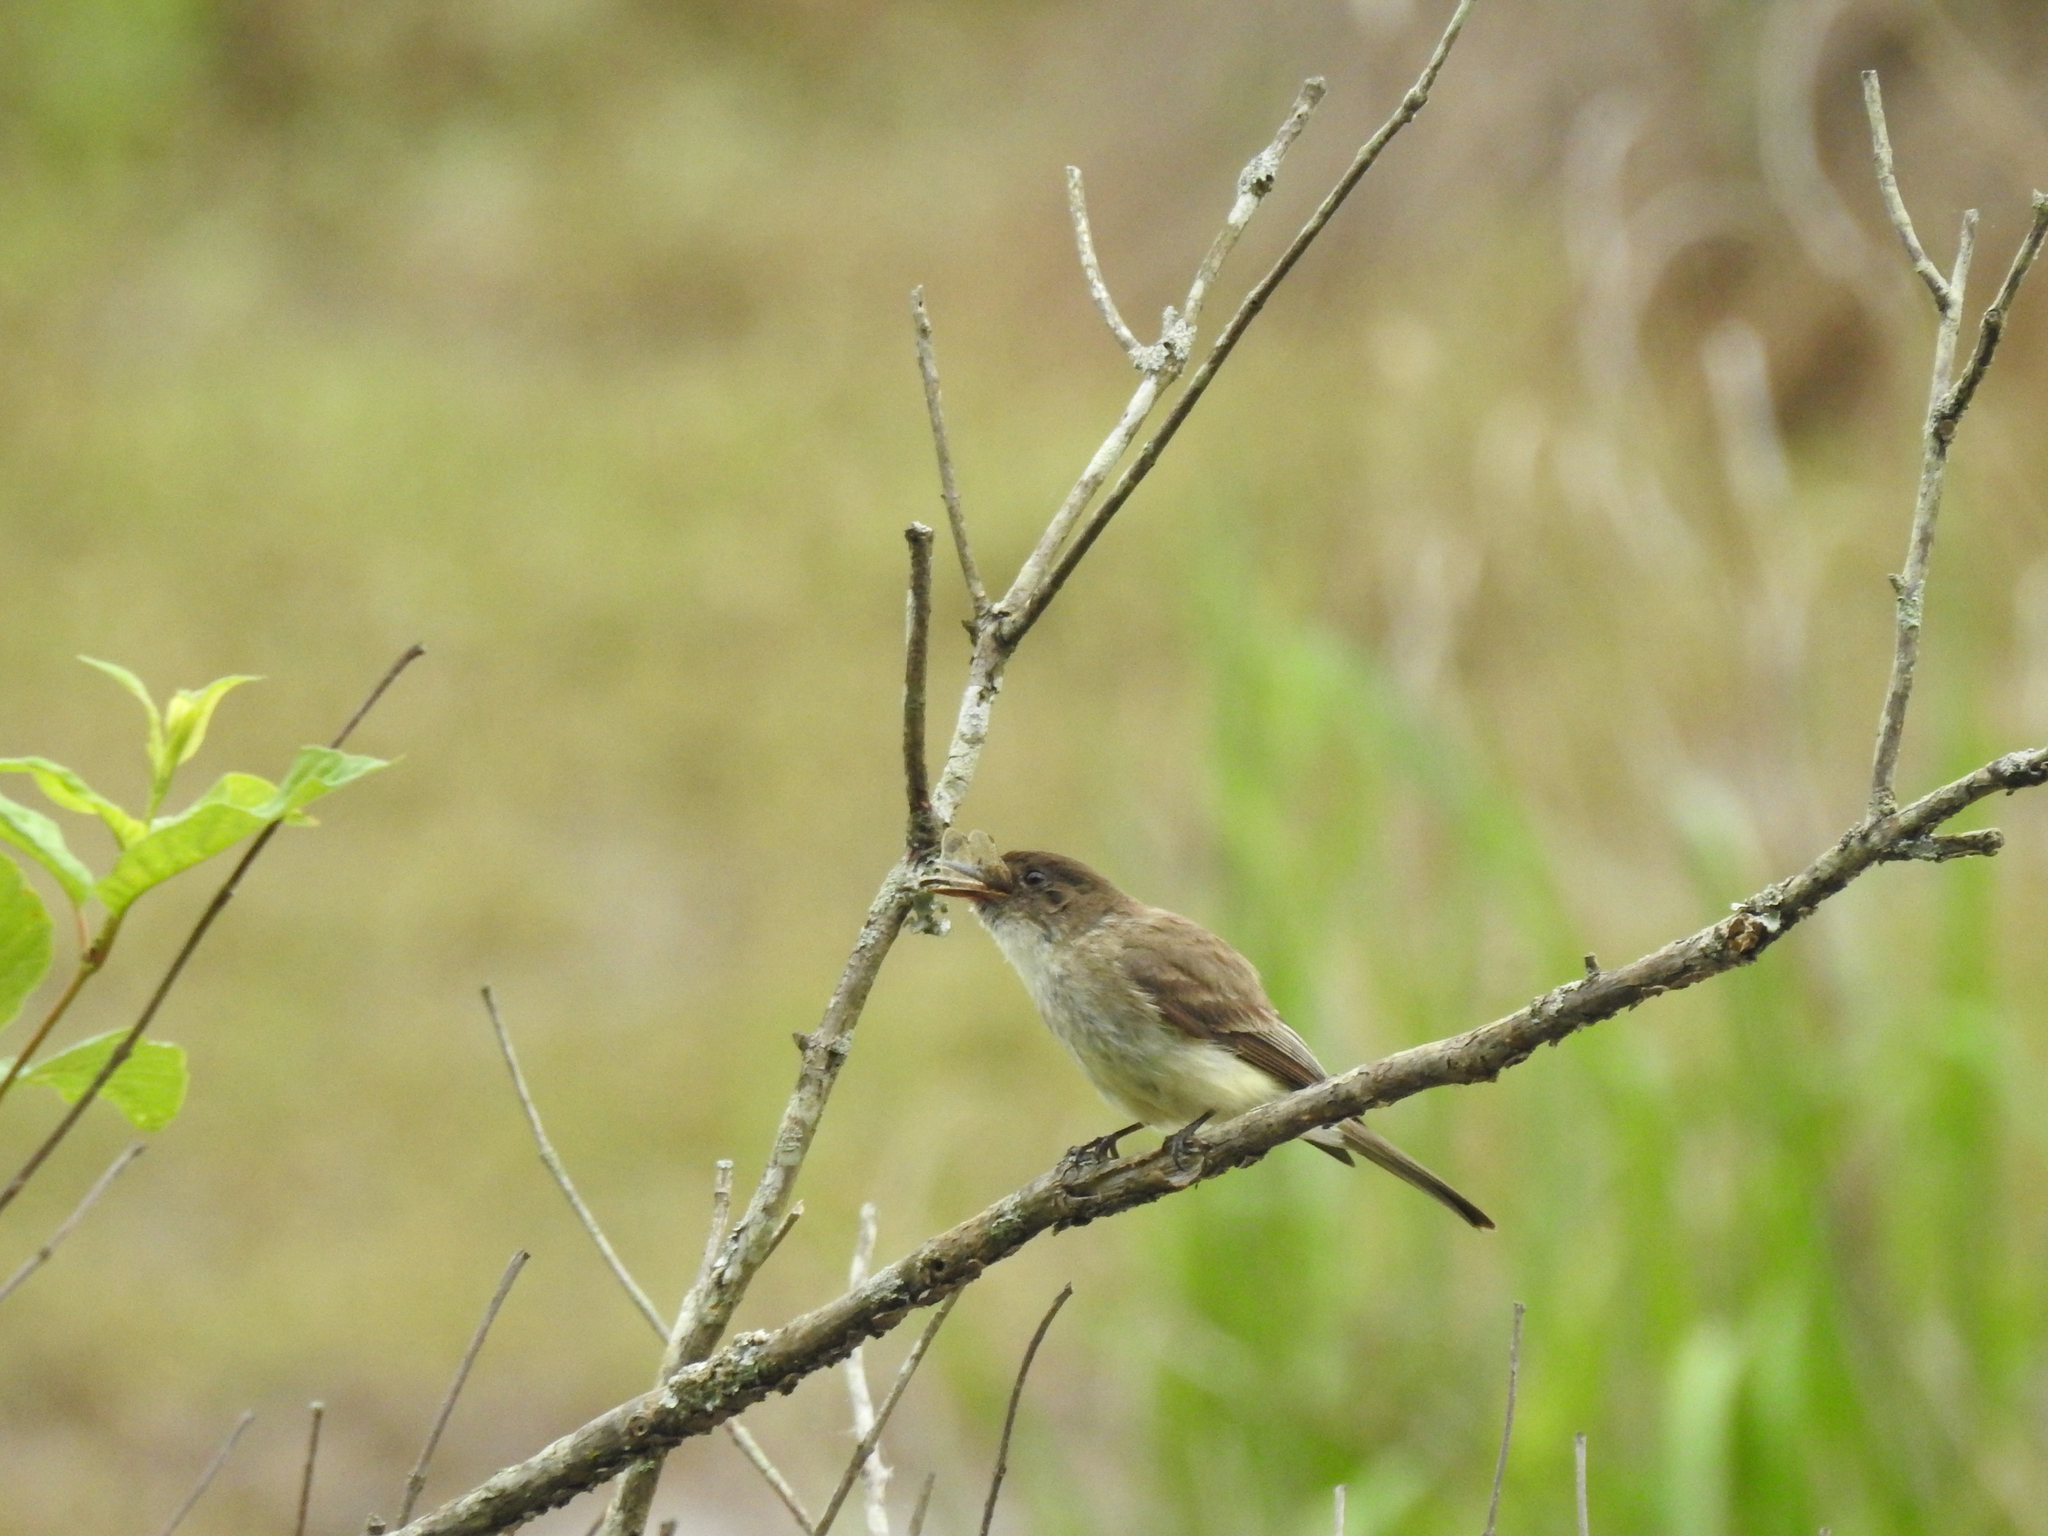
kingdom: Animalia
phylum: Chordata
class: Aves
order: Passeriformes
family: Tyrannidae
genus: Sayornis
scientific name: Sayornis phoebe
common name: Eastern phoebe
